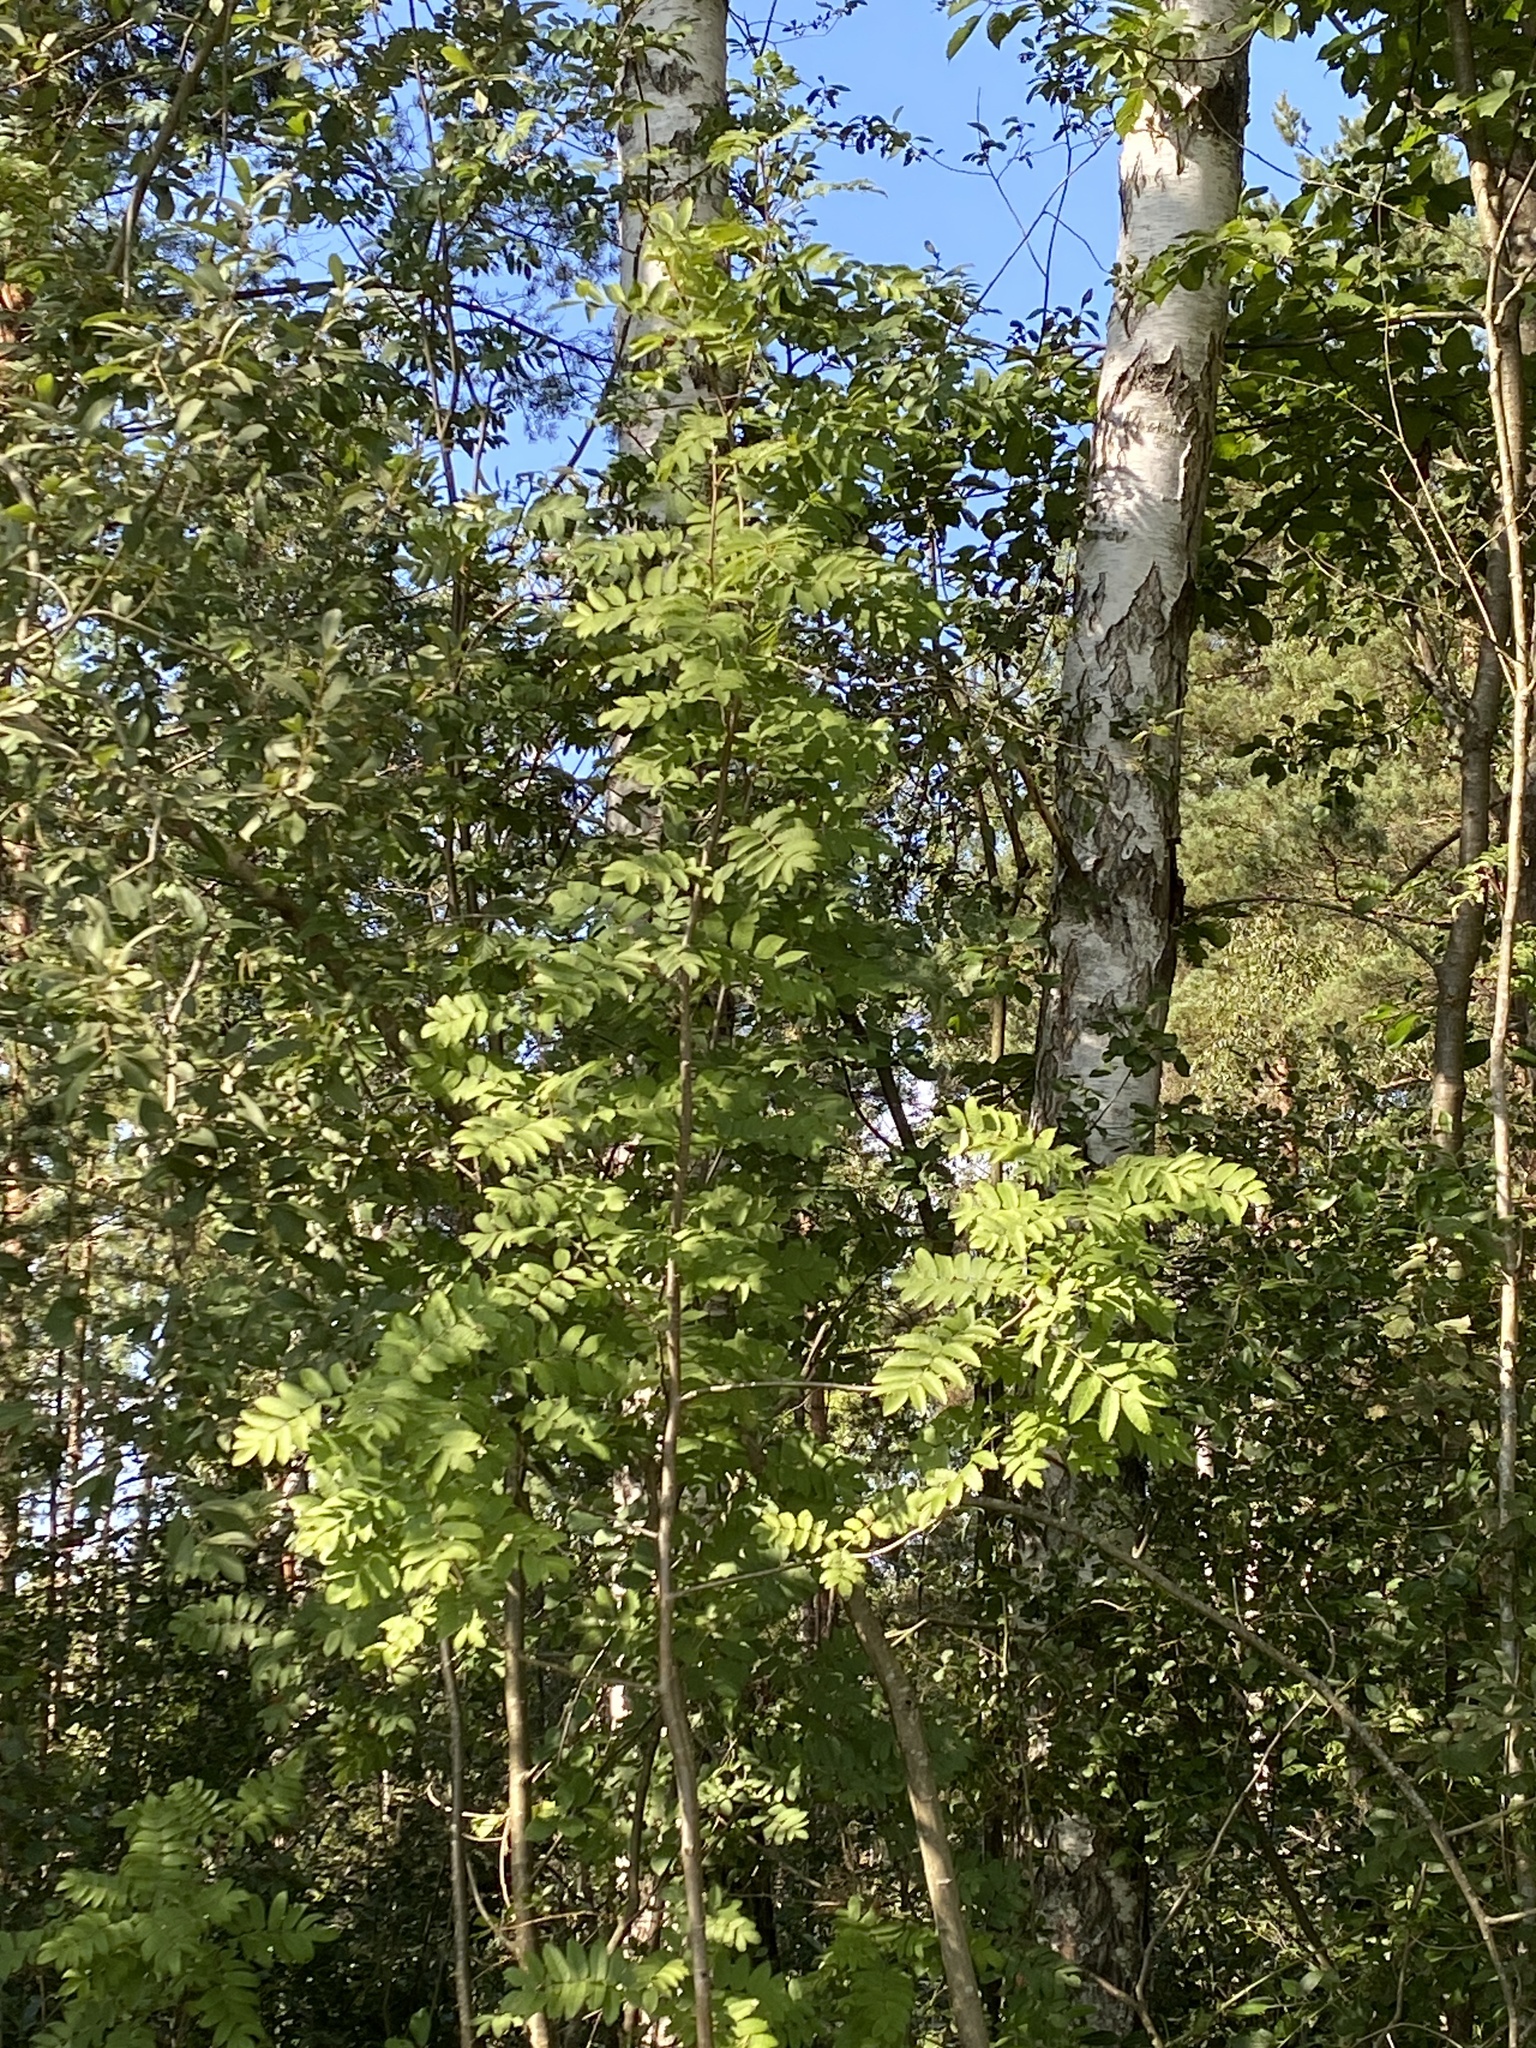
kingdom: Plantae
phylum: Tracheophyta
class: Magnoliopsida
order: Rosales
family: Rosaceae
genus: Sorbus
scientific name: Sorbus aucuparia
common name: Rowan
